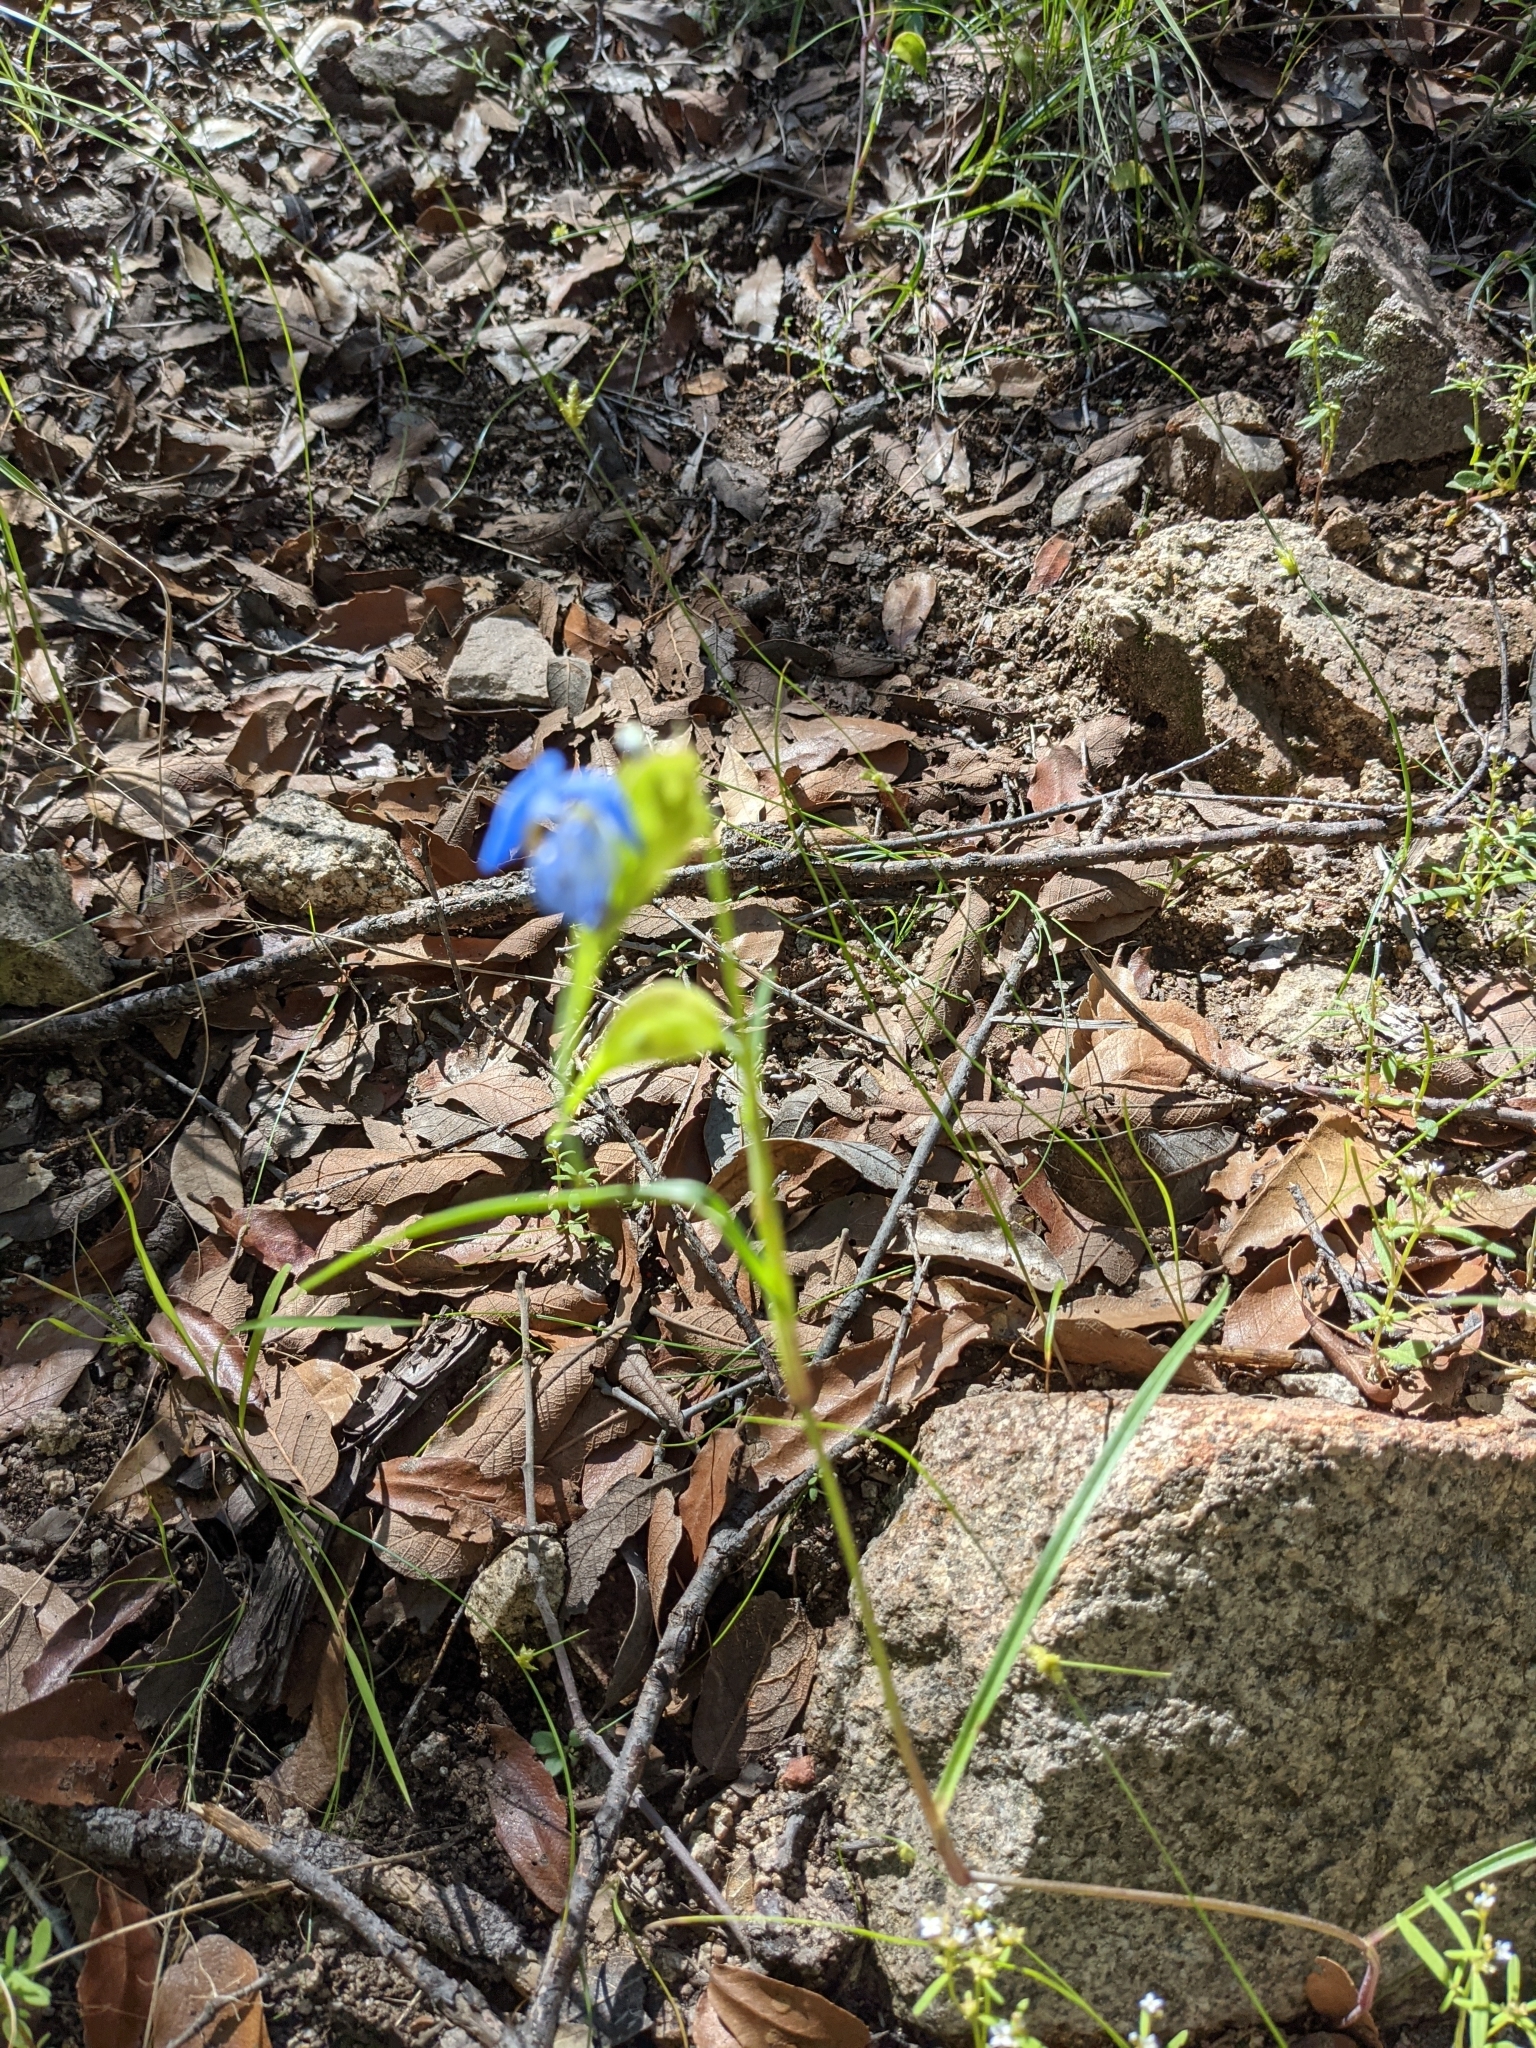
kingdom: Plantae
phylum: Tracheophyta
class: Liliopsida
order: Commelinales
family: Commelinaceae
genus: Commelina
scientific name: Commelina dianthifolia
